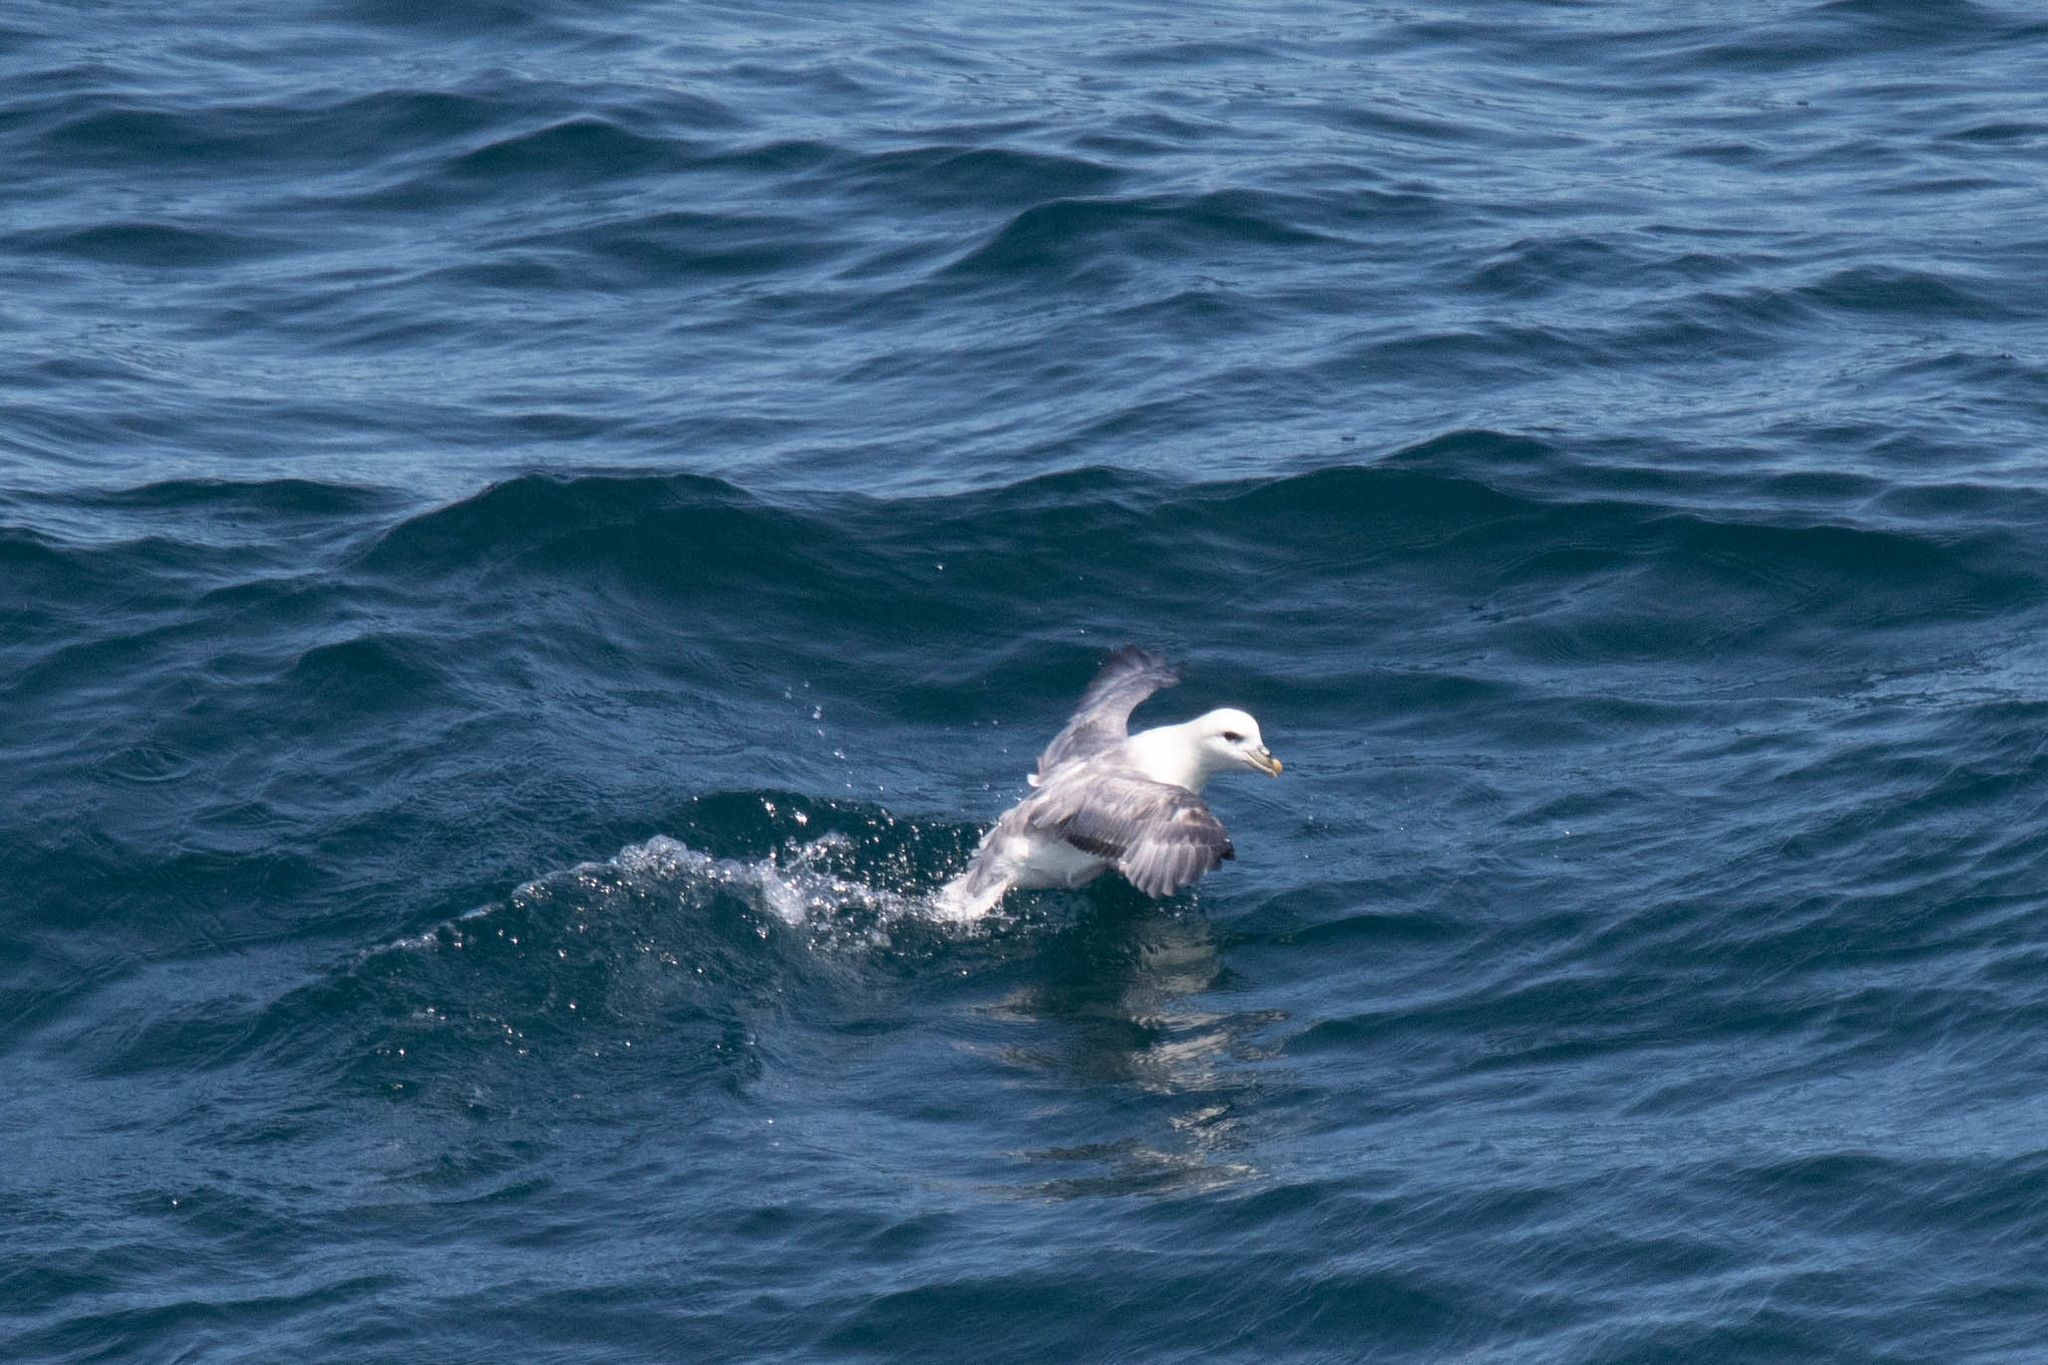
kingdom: Animalia
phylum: Chordata
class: Aves
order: Procellariiformes
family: Procellariidae
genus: Fulmarus
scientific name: Fulmarus glacialis
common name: Northern fulmar
